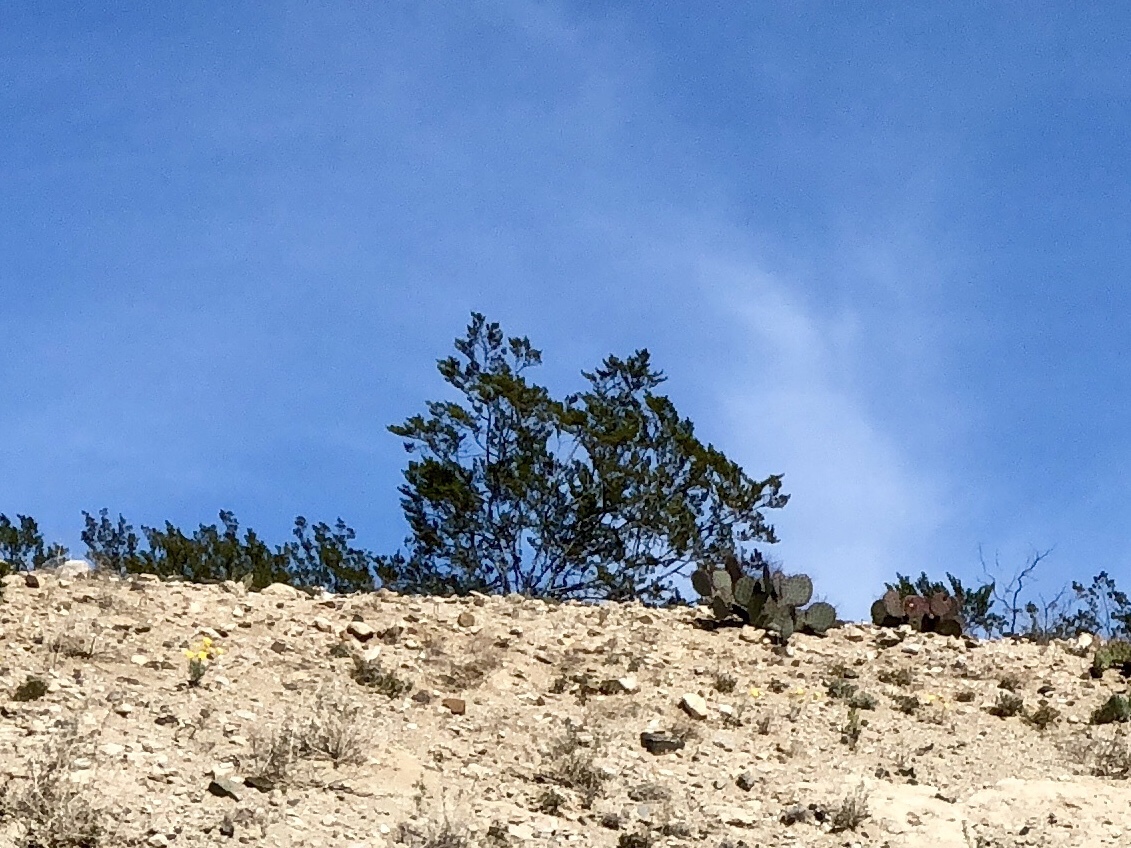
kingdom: Plantae
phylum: Tracheophyta
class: Magnoliopsida
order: Zygophyllales
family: Zygophyllaceae
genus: Larrea
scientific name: Larrea tridentata
